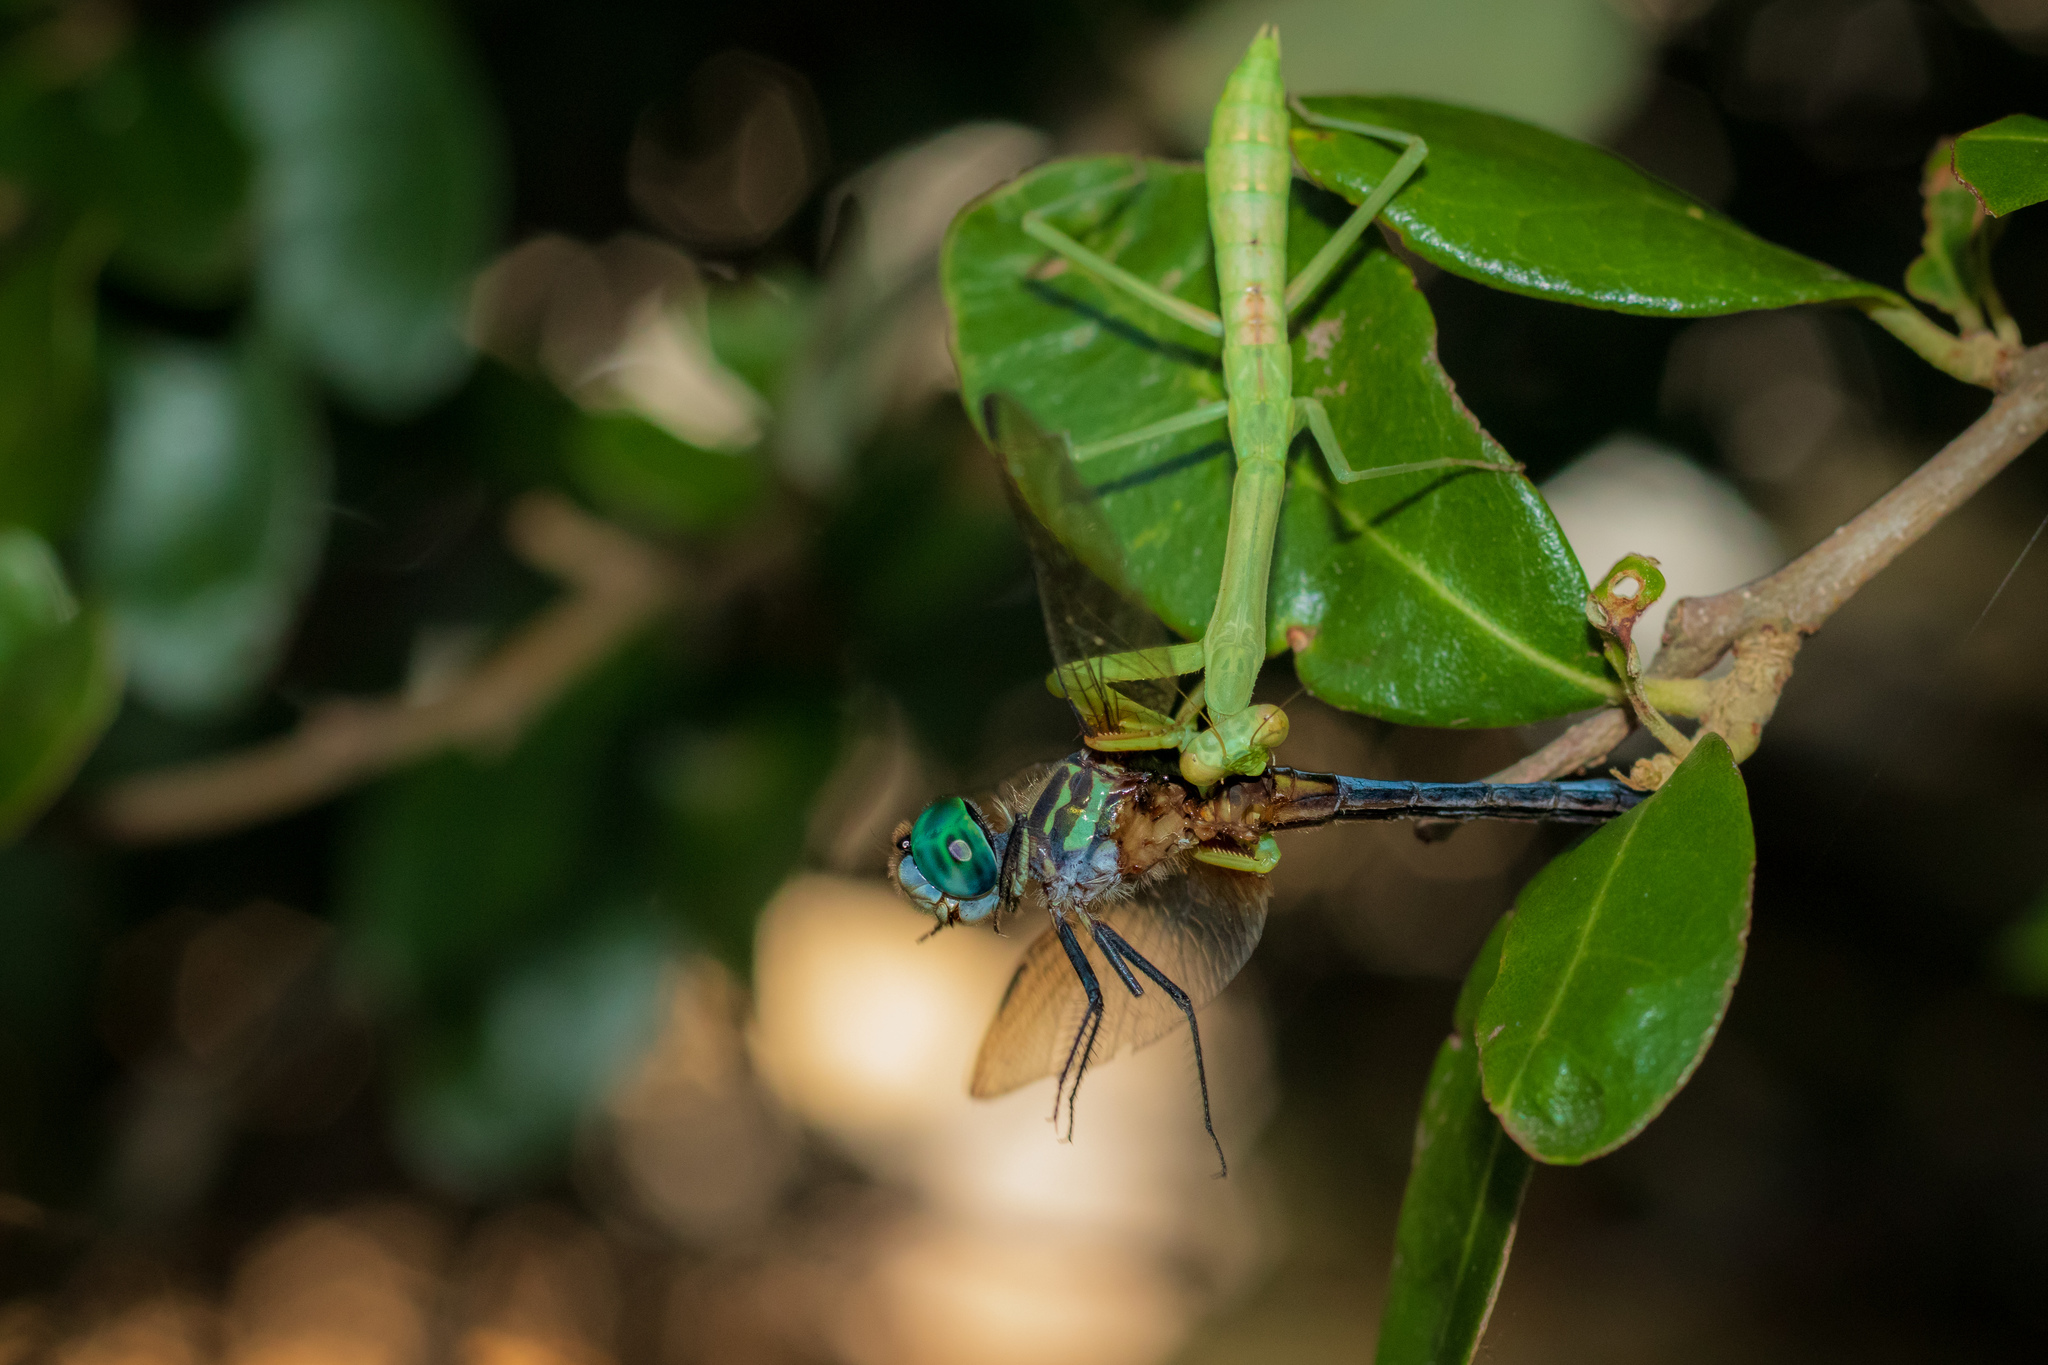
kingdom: Animalia
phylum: Arthropoda
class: Insecta
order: Mantodea
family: Mantidae
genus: Stagmomantis
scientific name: Stagmomantis carolina
